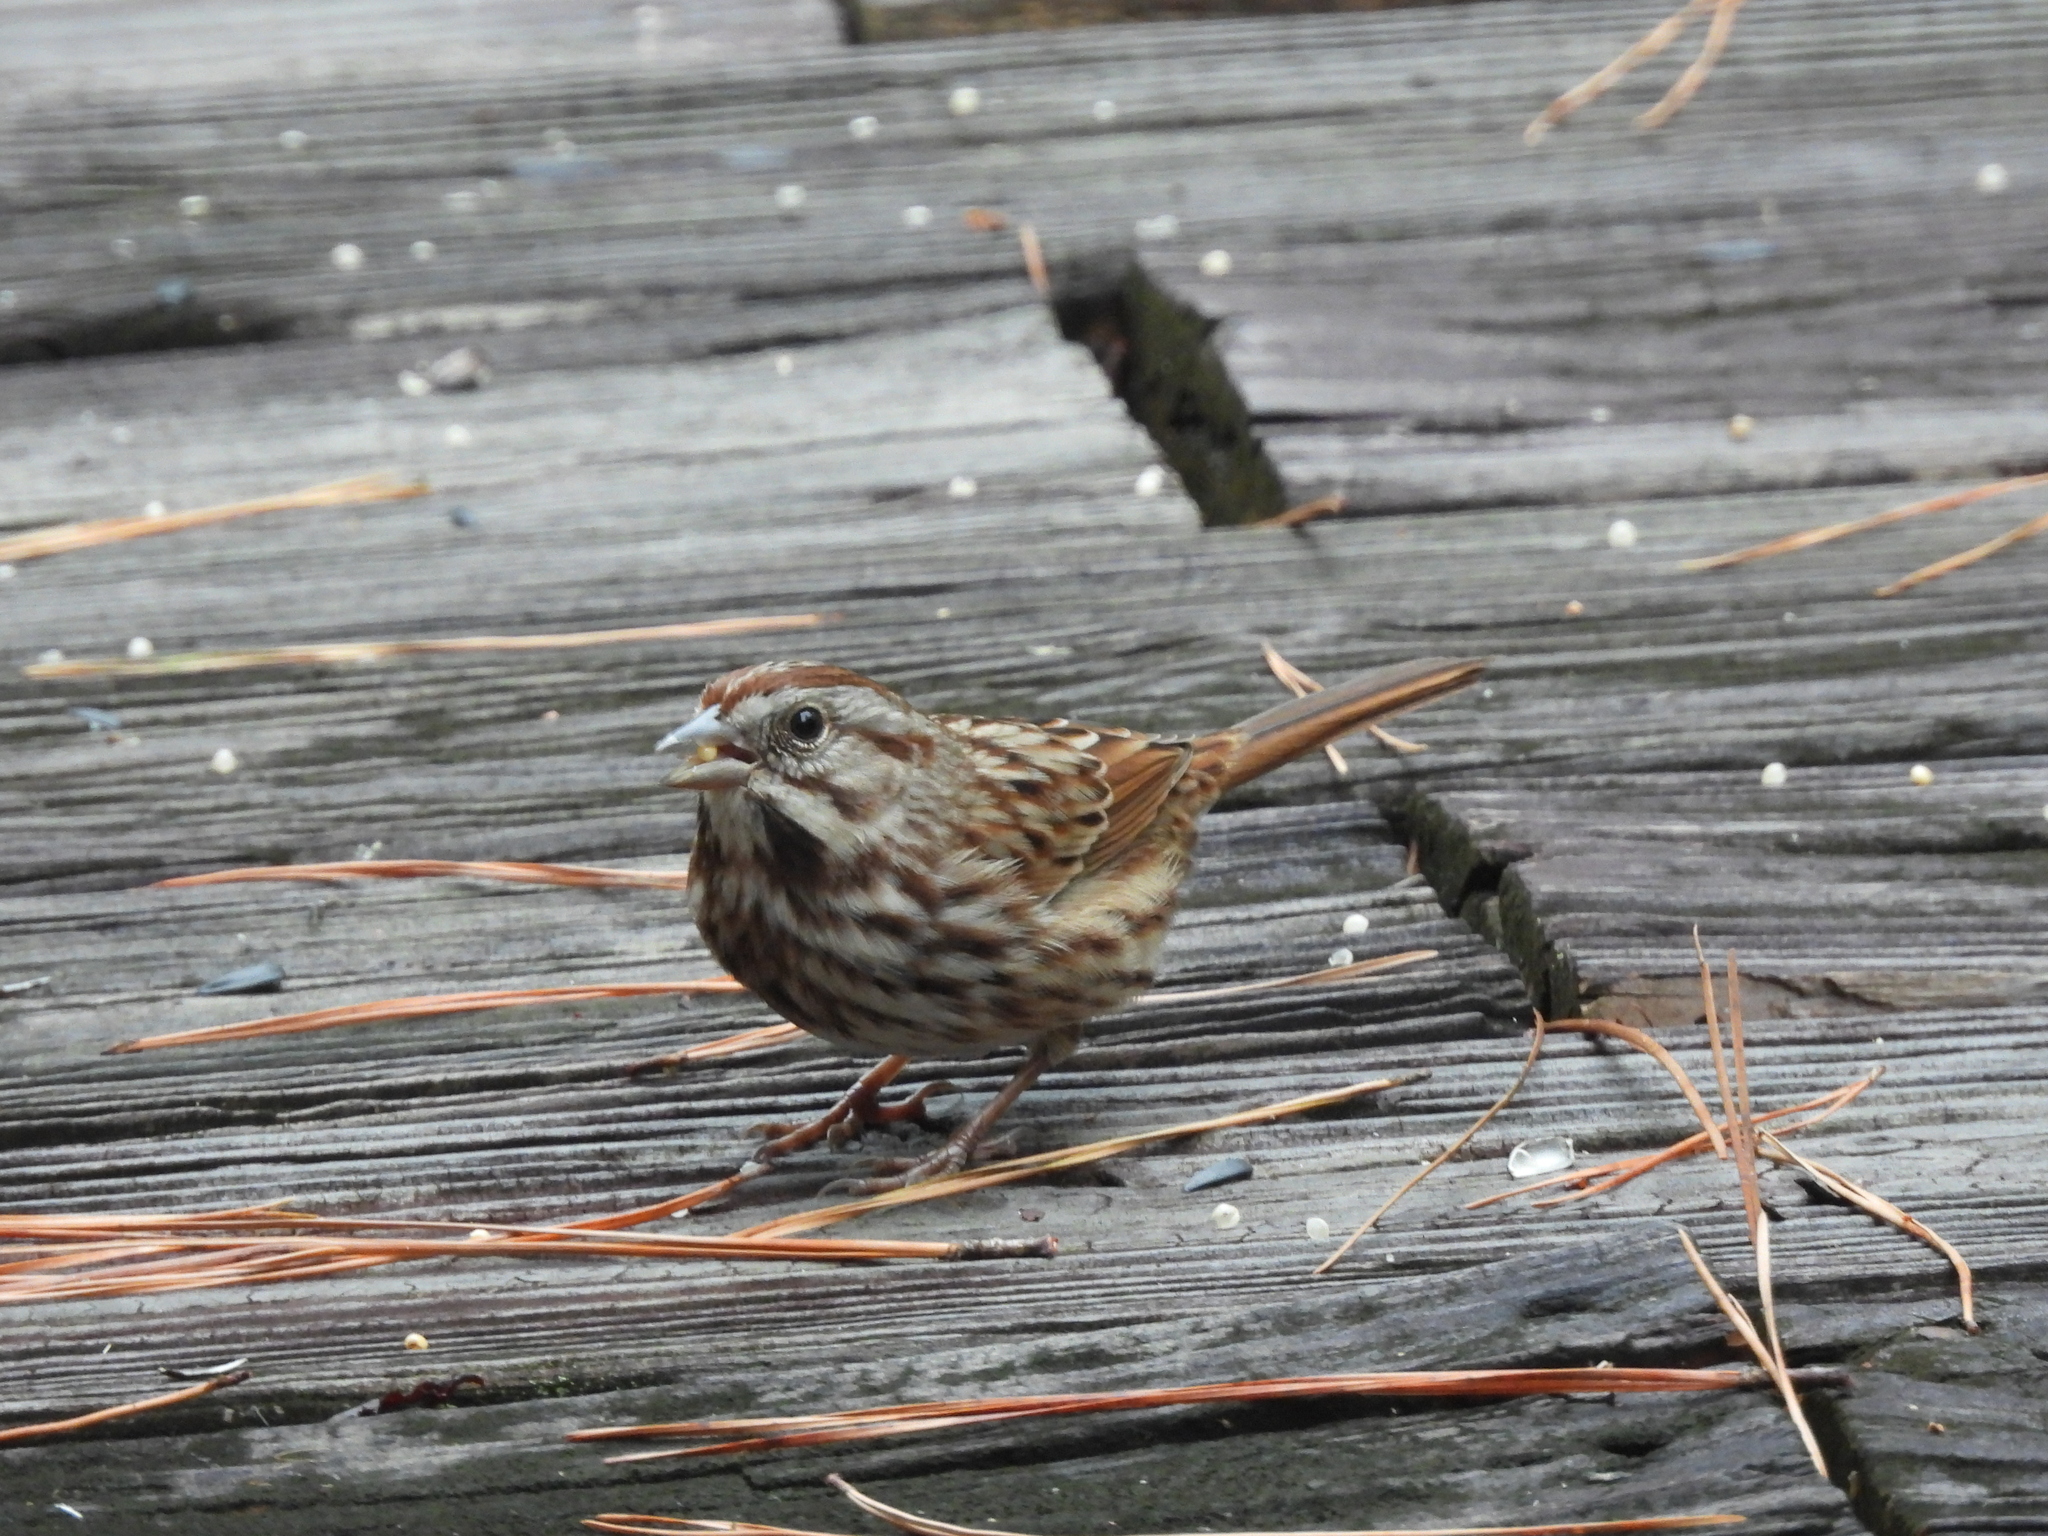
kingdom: Animalia
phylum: Chordata
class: Aves
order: Passeriformes
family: Passerellidae
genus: Melospiza
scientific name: Melospiza melodia
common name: Song sparrow
